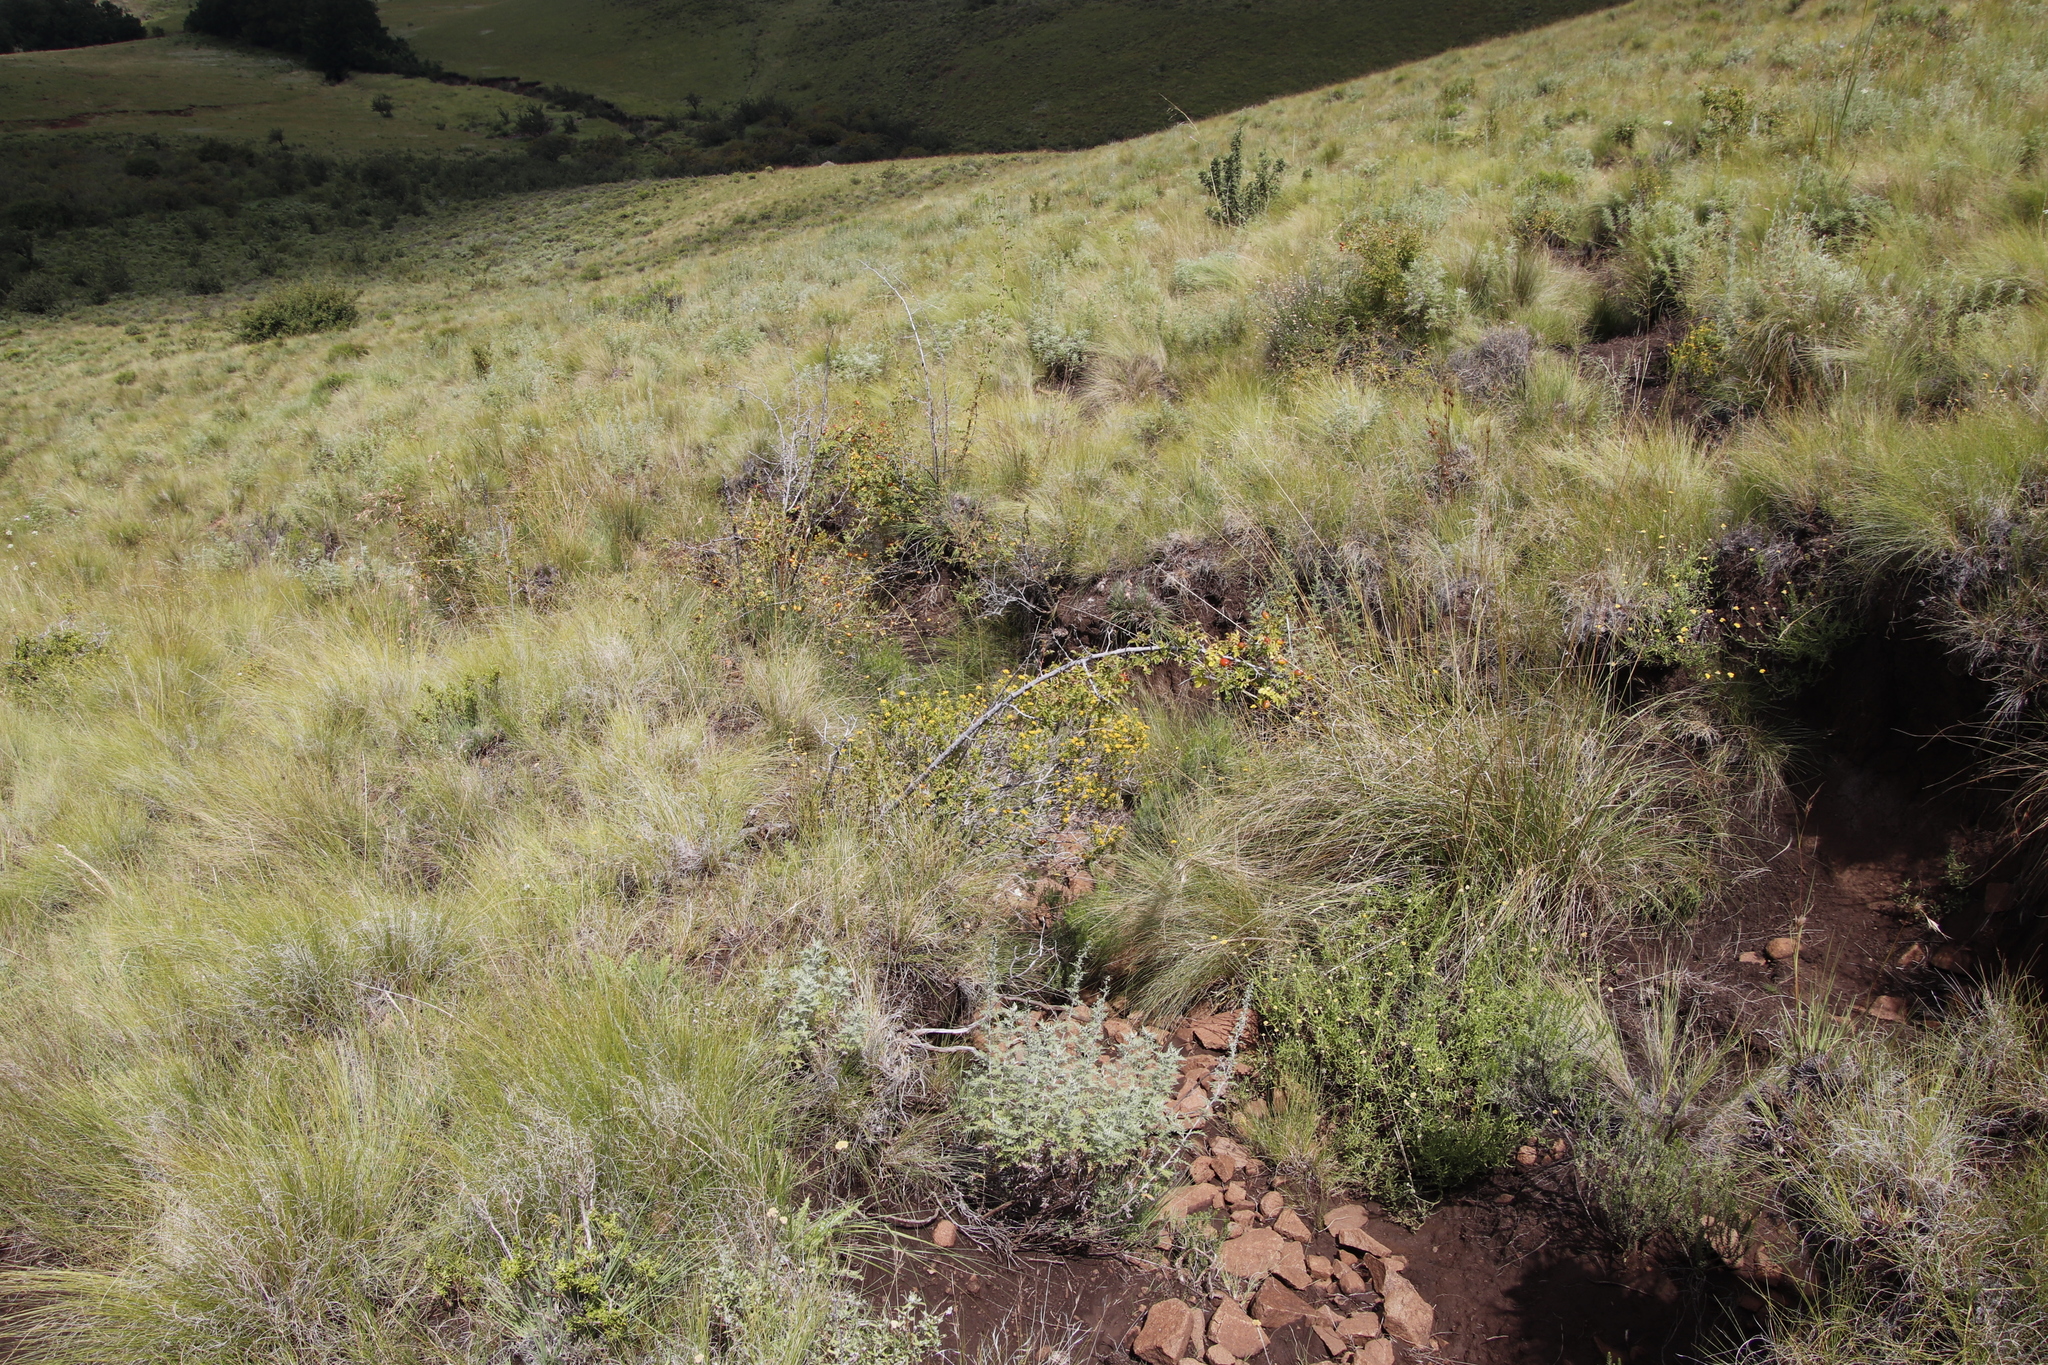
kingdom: Plantae
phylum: Tracheophyta
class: Magnoliopsida
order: Rosales
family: Rosaceae
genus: Rosa
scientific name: Rosa rubiginosa
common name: Sweet-briar
